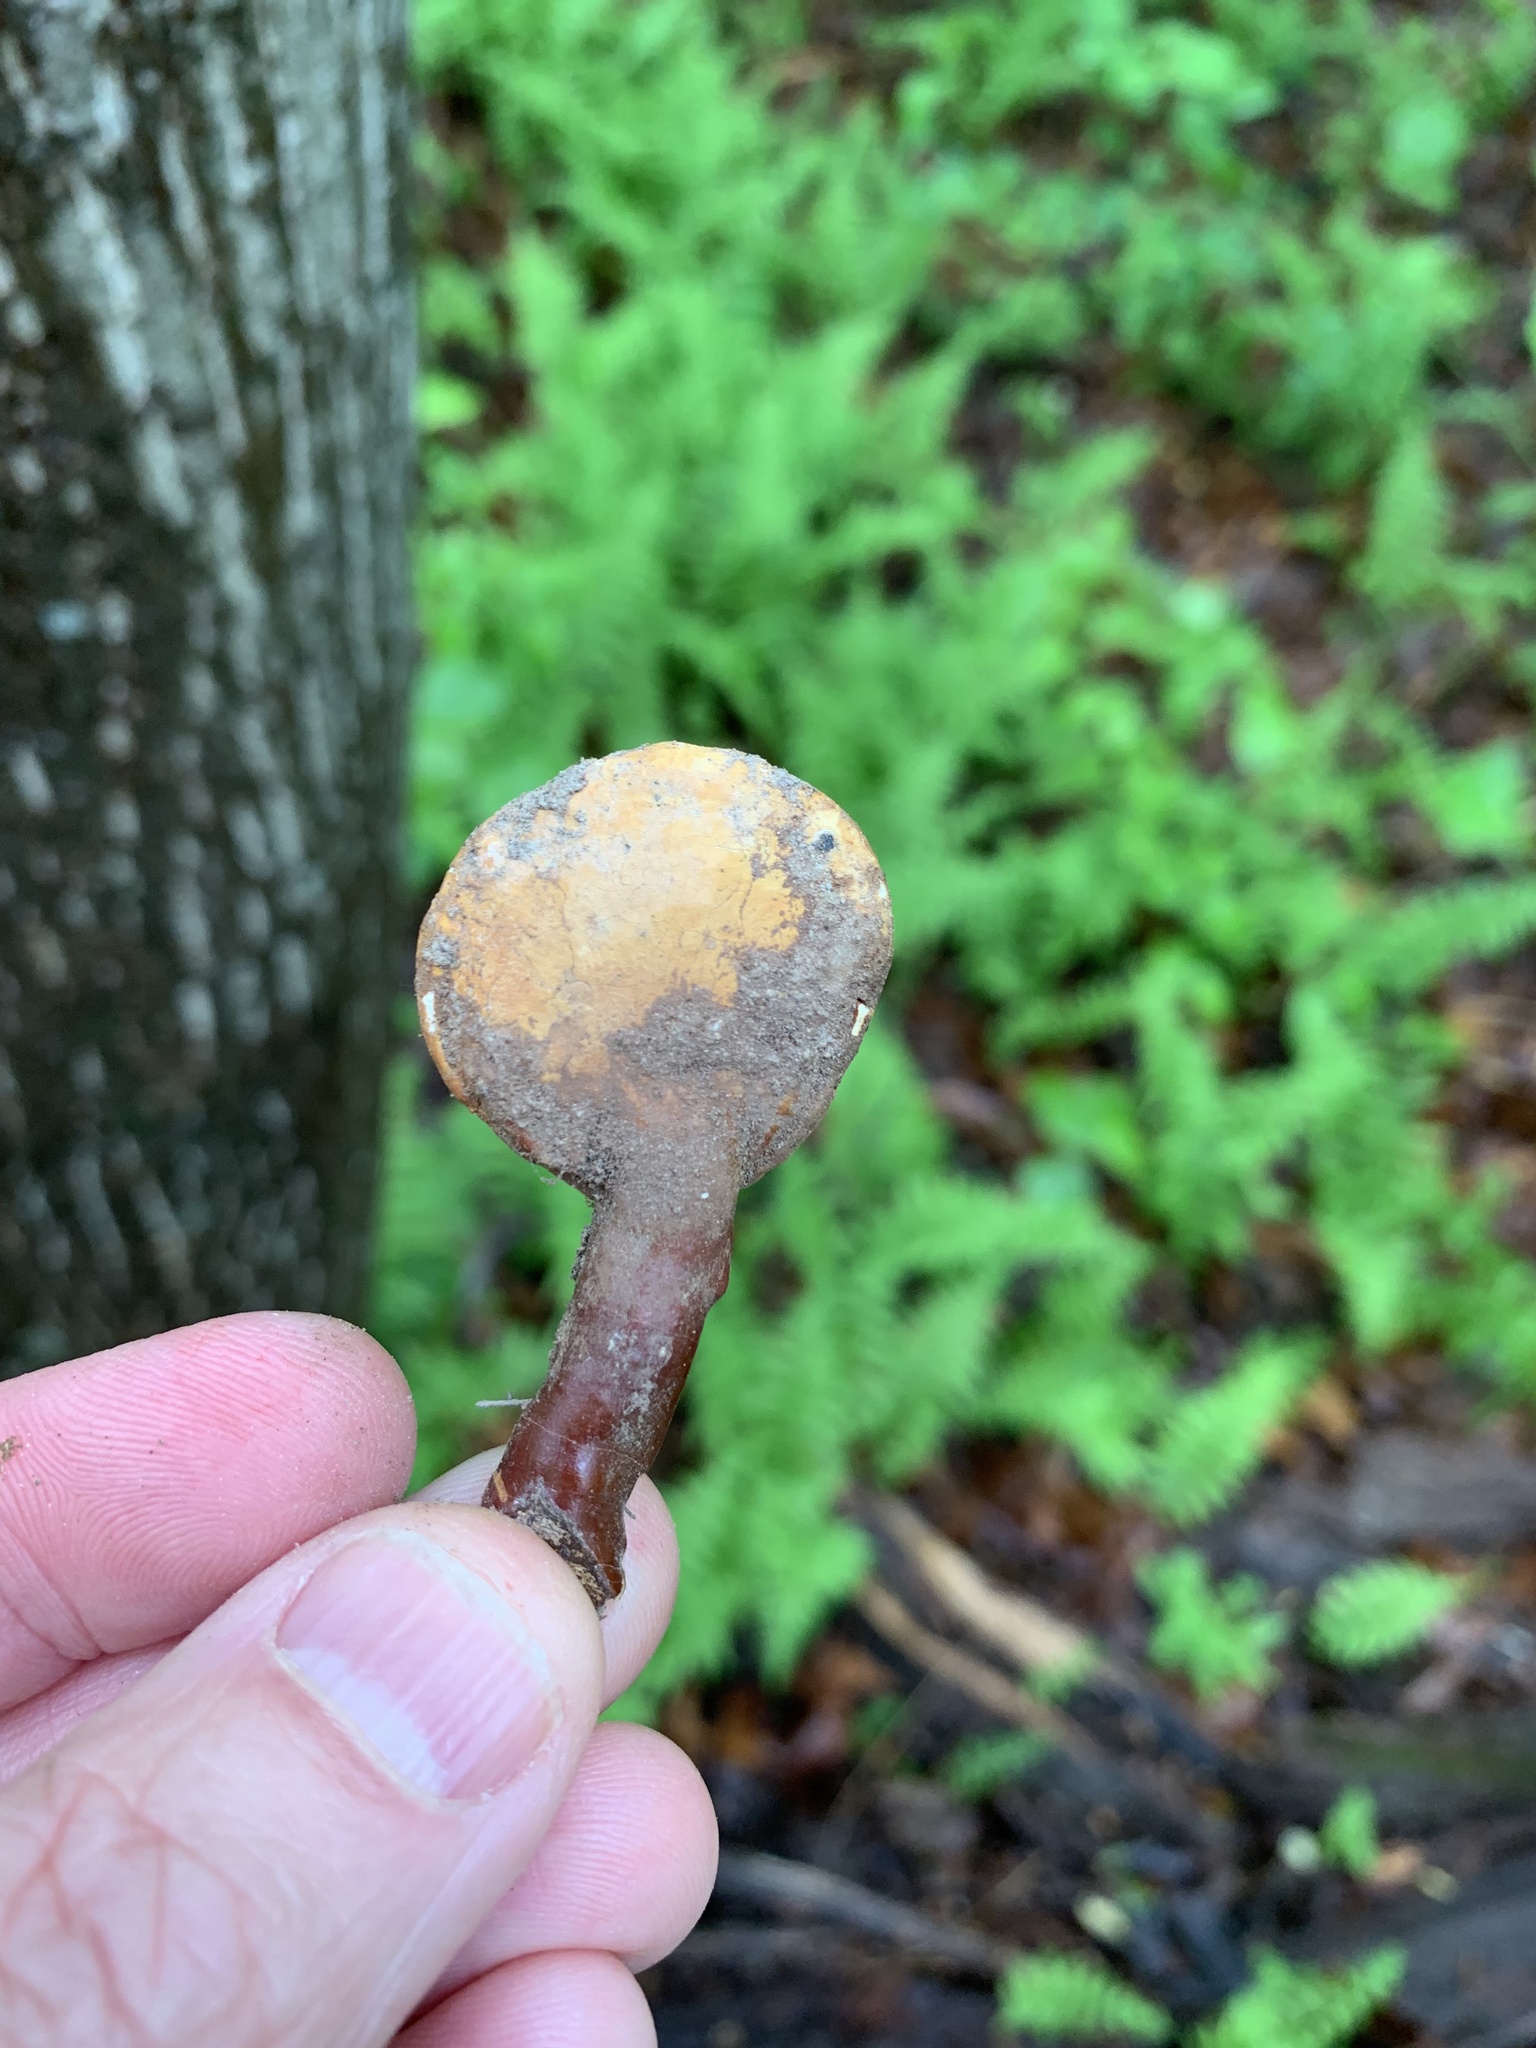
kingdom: Fungi
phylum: Basidiomycota
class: Agaricomycetes
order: Polyporales
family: Polyporaceae
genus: Ganoderma
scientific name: Ganoderma curtisii
